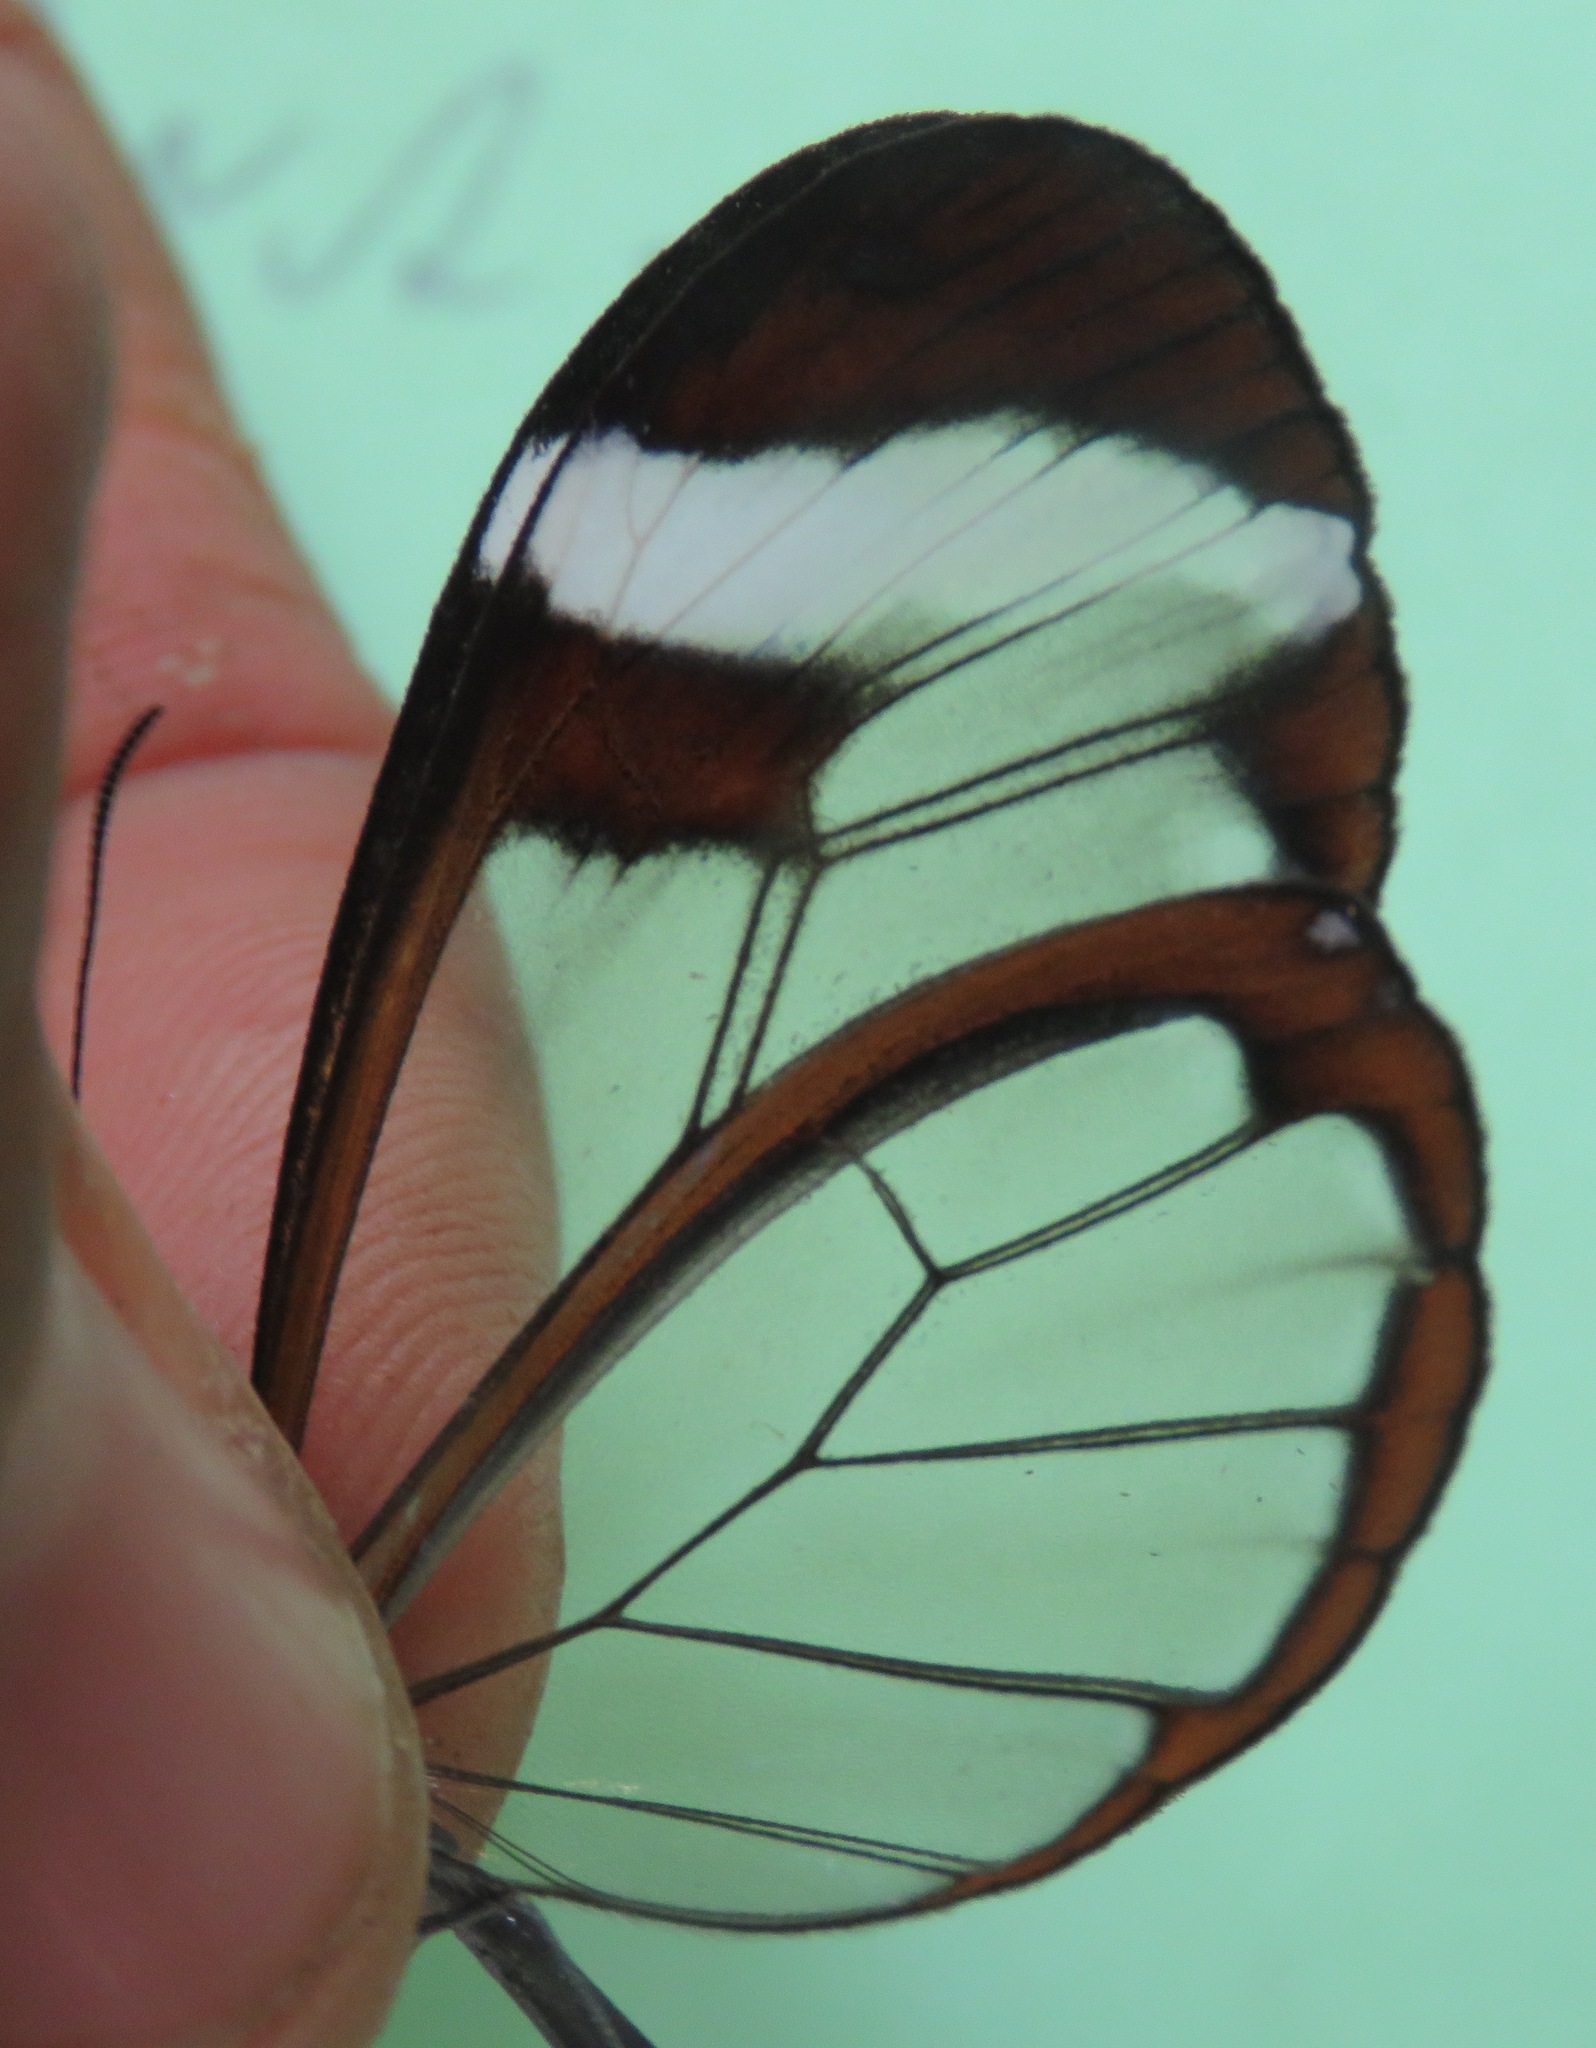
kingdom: Animalia
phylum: Arthropoda
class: Insecta
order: Lepidoptera
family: Nymphalidae
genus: Greta
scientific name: Greta morgane
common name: Thick-tipped greta
